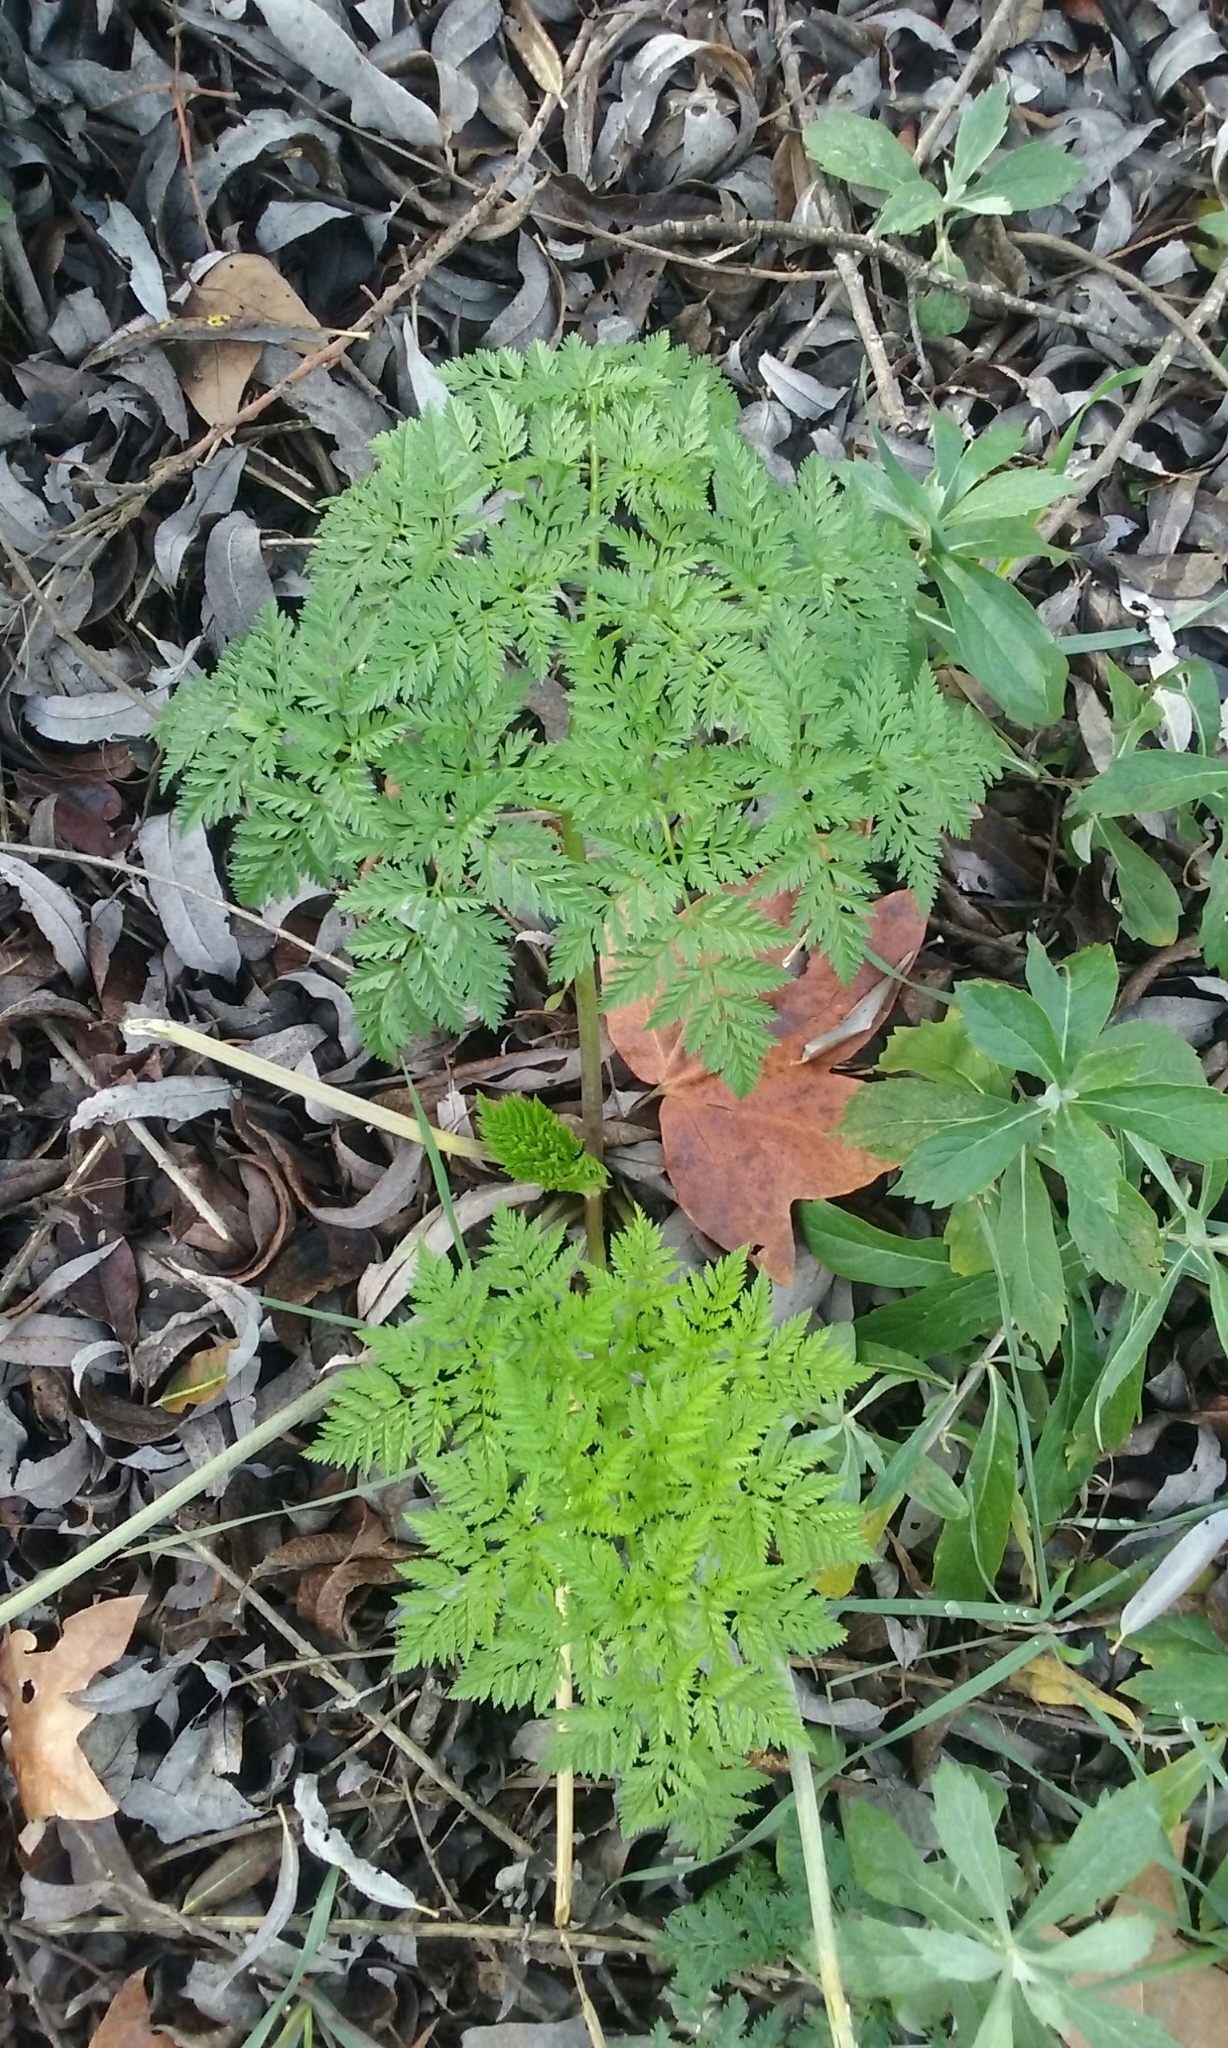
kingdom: Plantae
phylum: Tracheophyta
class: Magnoliopsida
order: Apiales
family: Apiaceae
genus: Conium
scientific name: Conium maculatum
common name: Hemlock
